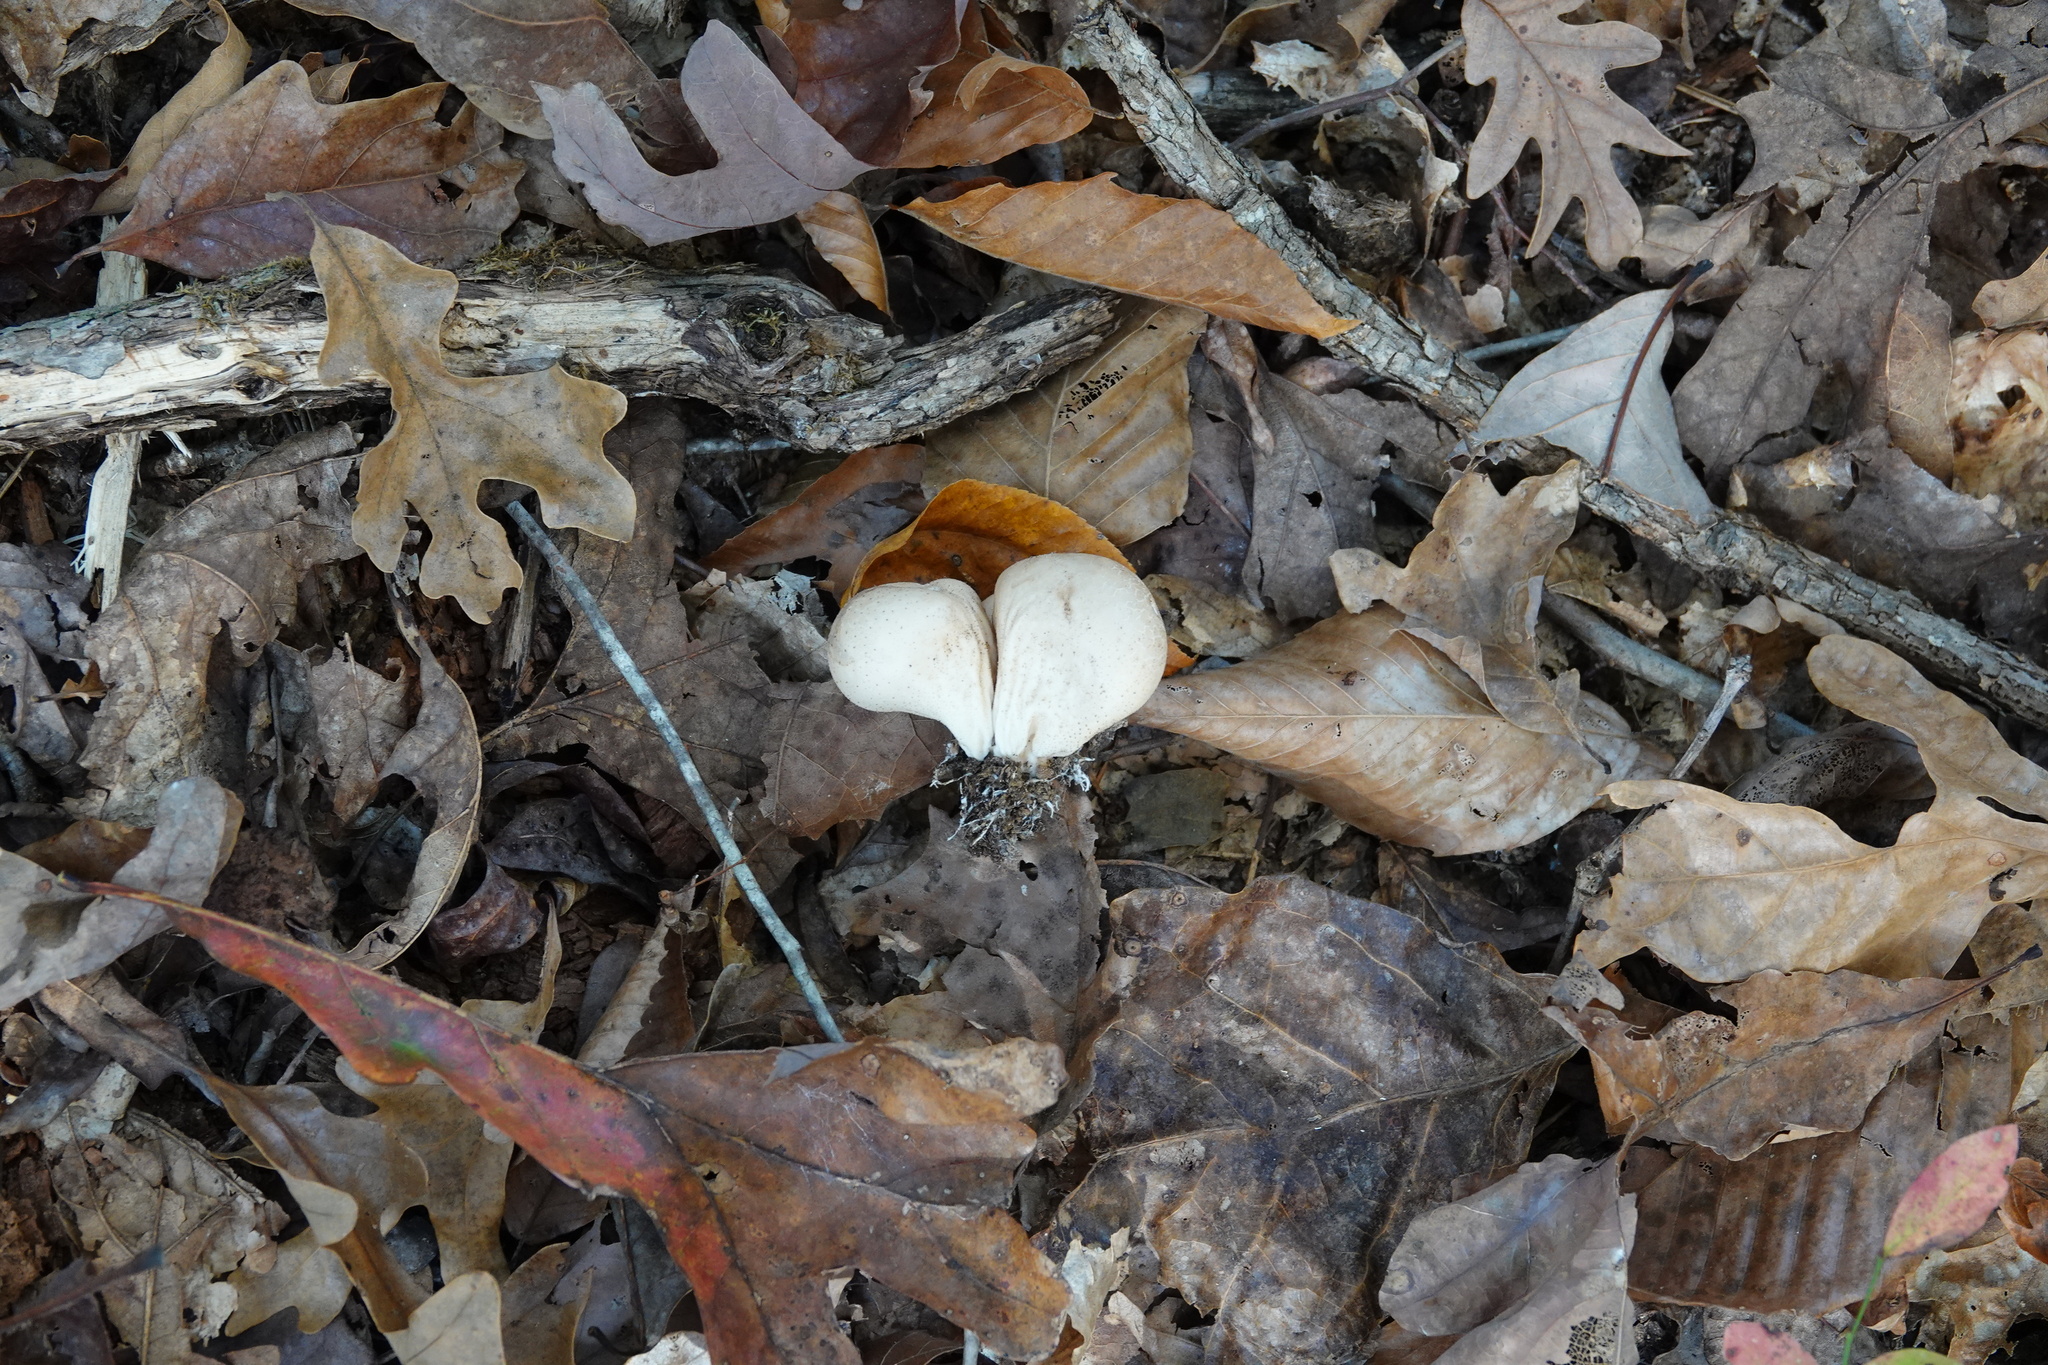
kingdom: Fungi
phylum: Basidiomycota
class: Agaricomycetes
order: Agaricales
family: Lycoperdaceae
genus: Apioperdon
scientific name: Apioperdon pyriforme
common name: Pear-shaped puffball
